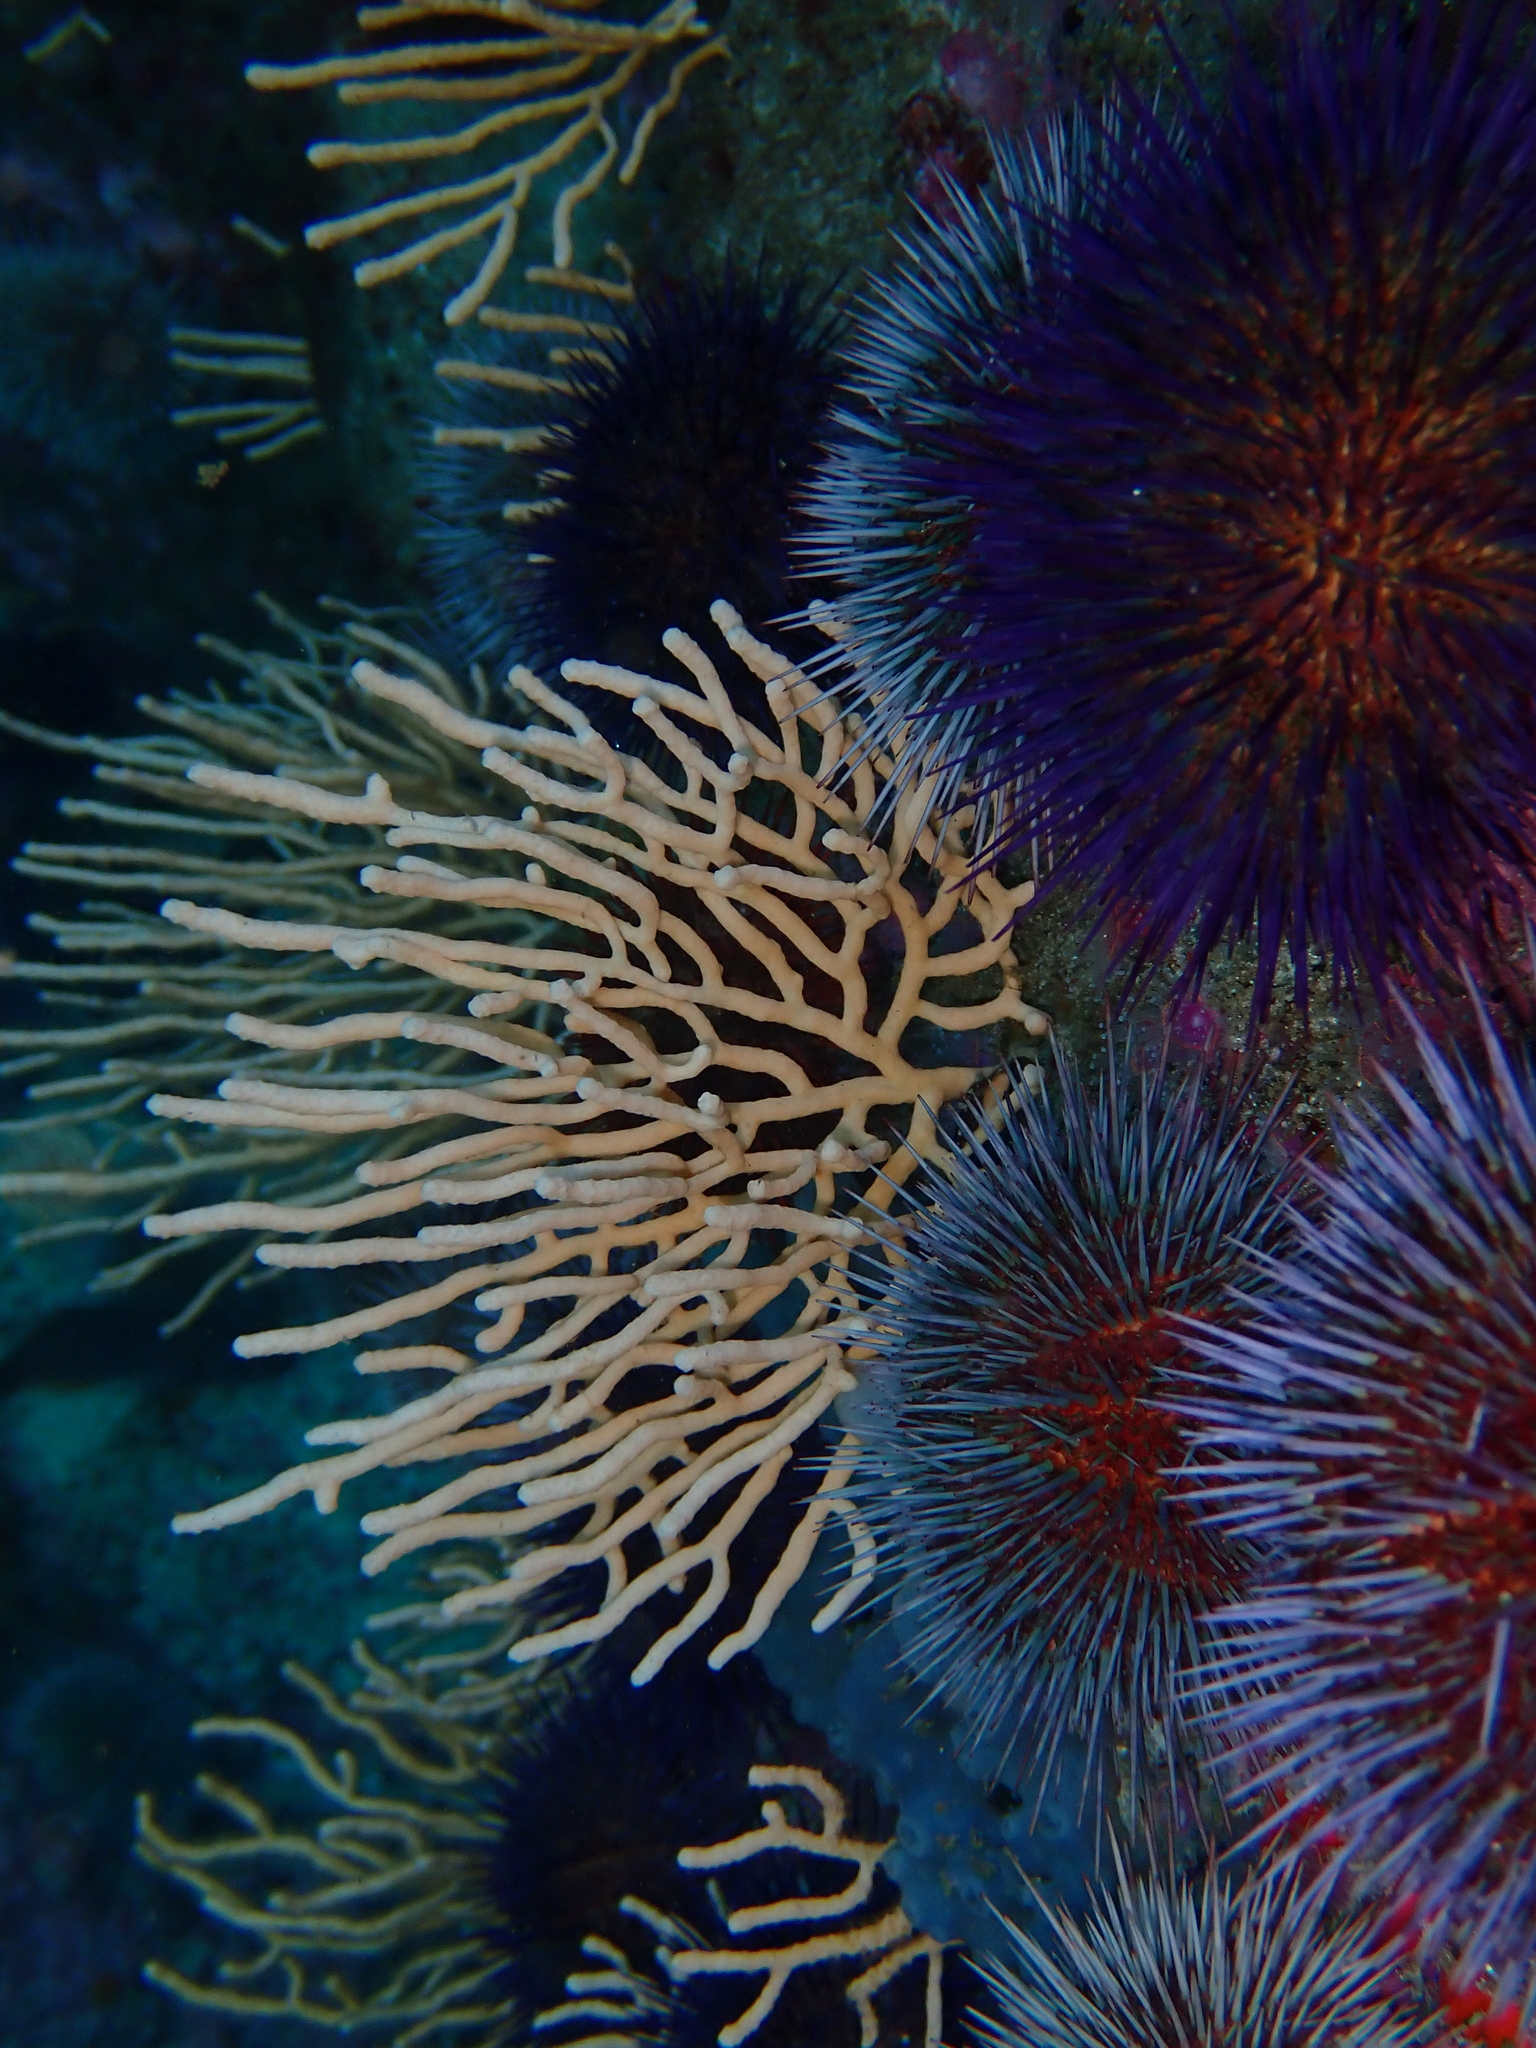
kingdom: Animalia
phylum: Cnidaria
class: Anthozoa
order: Malacalcyonacea
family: Eunicellidae
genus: Eunicella
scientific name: Eunicella microthela
